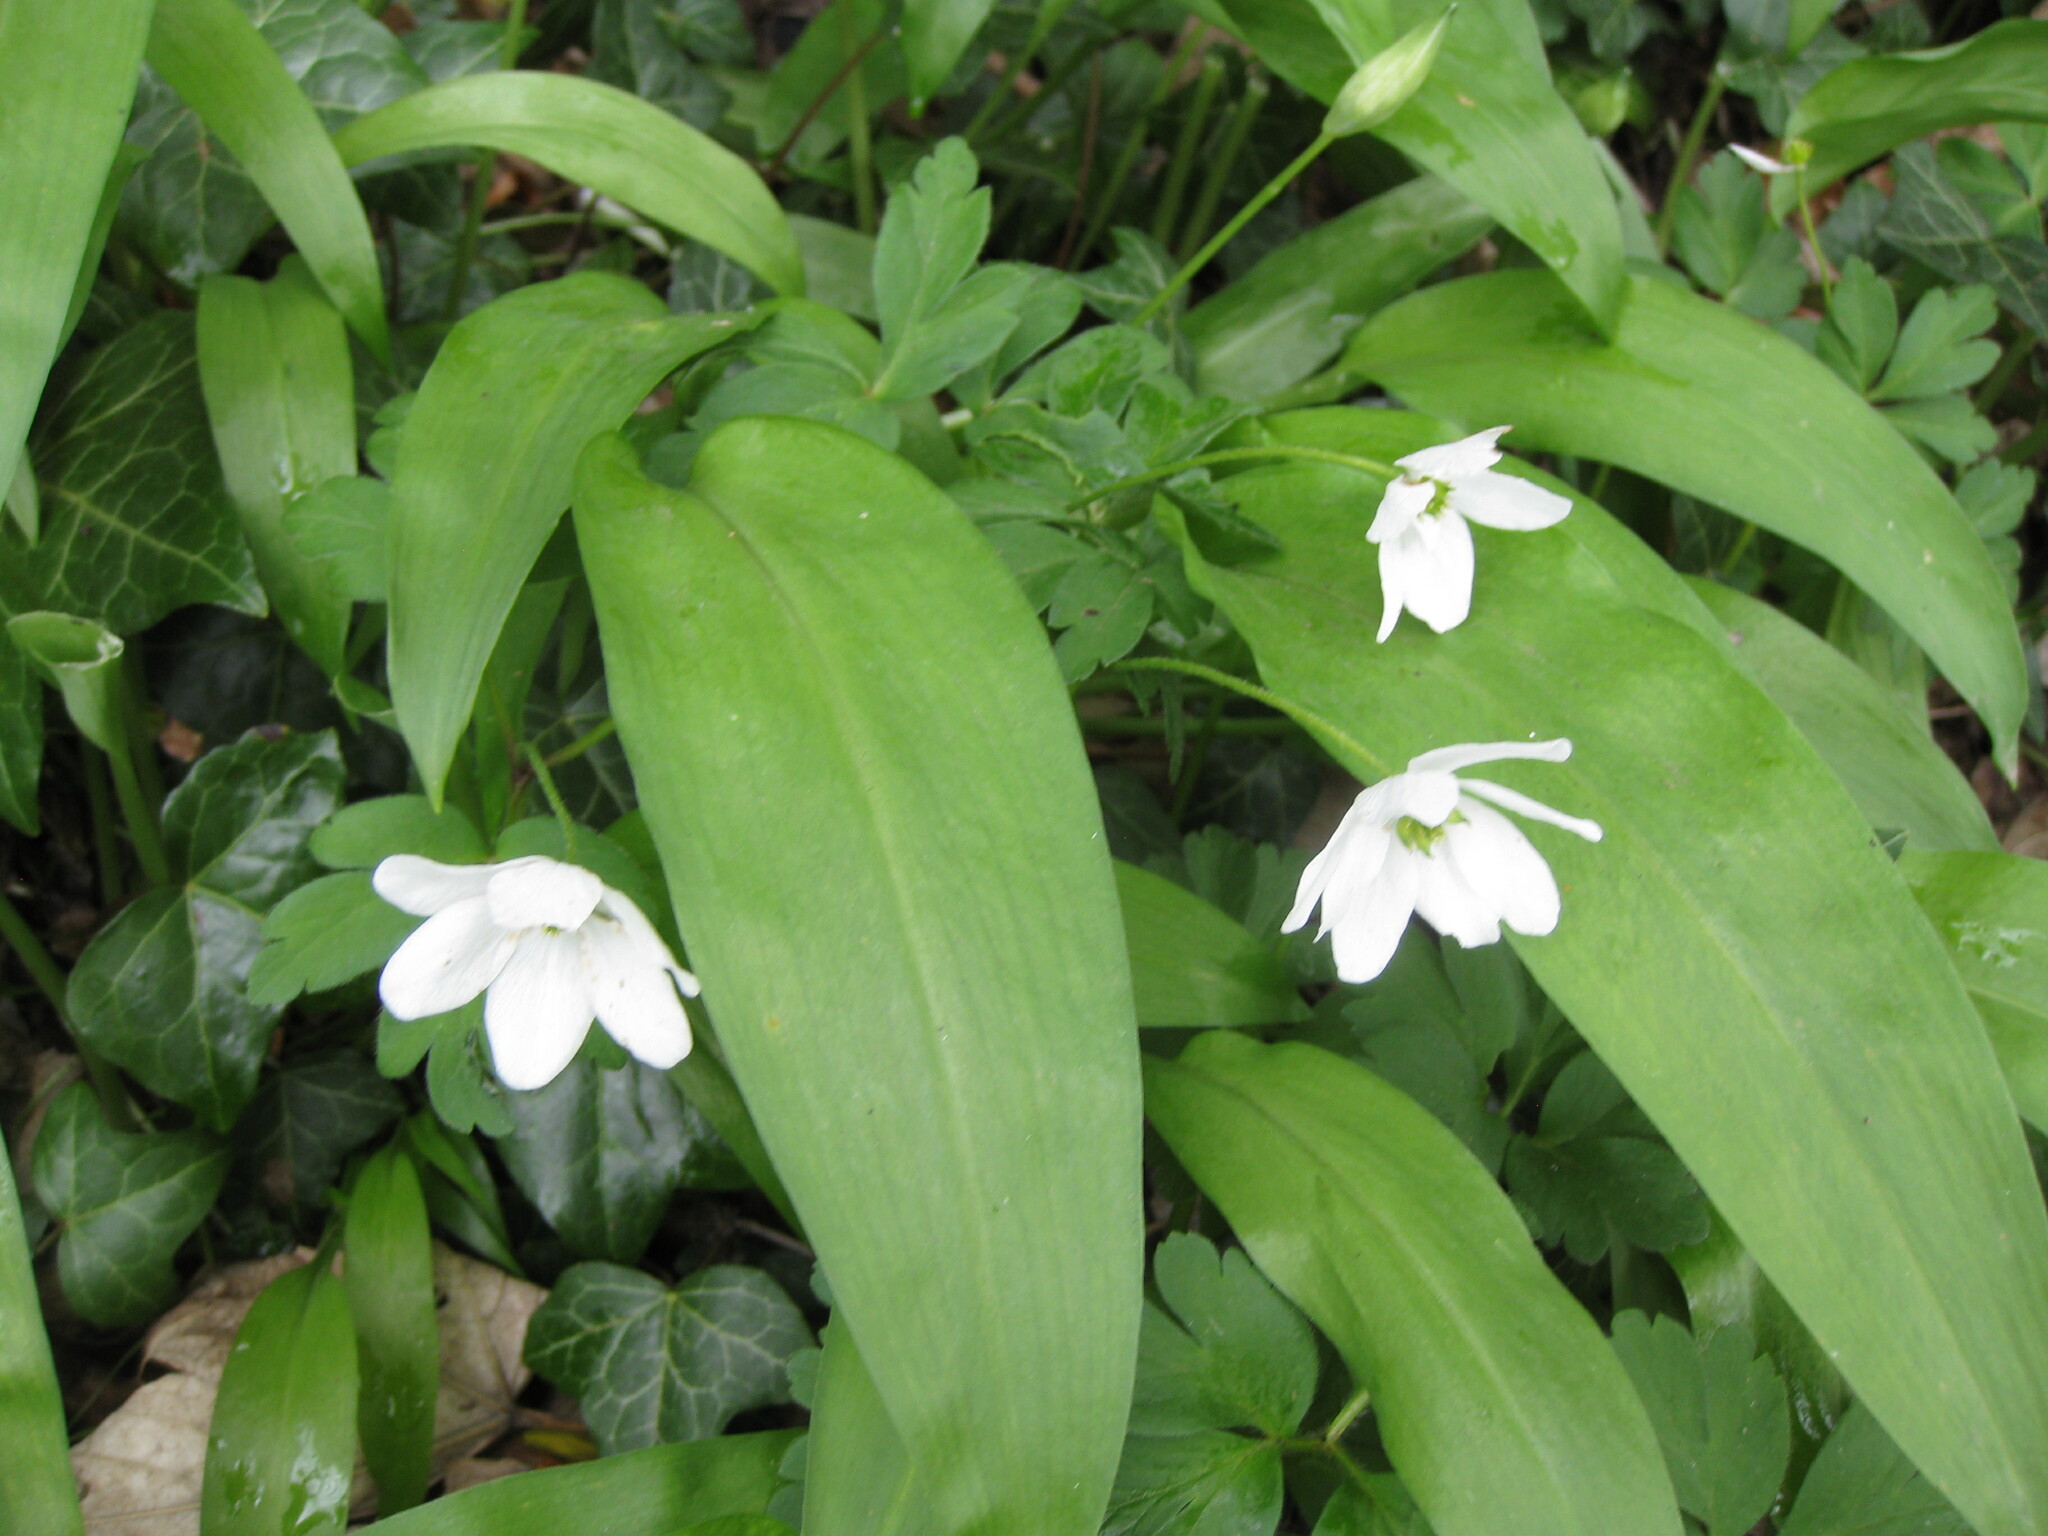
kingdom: Plantae
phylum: Tracheophyta
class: Magnoliopsida
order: Ranunculales
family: Ranunculaceae
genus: Anemone
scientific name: Anemone nemorosa
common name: Wood anemone
